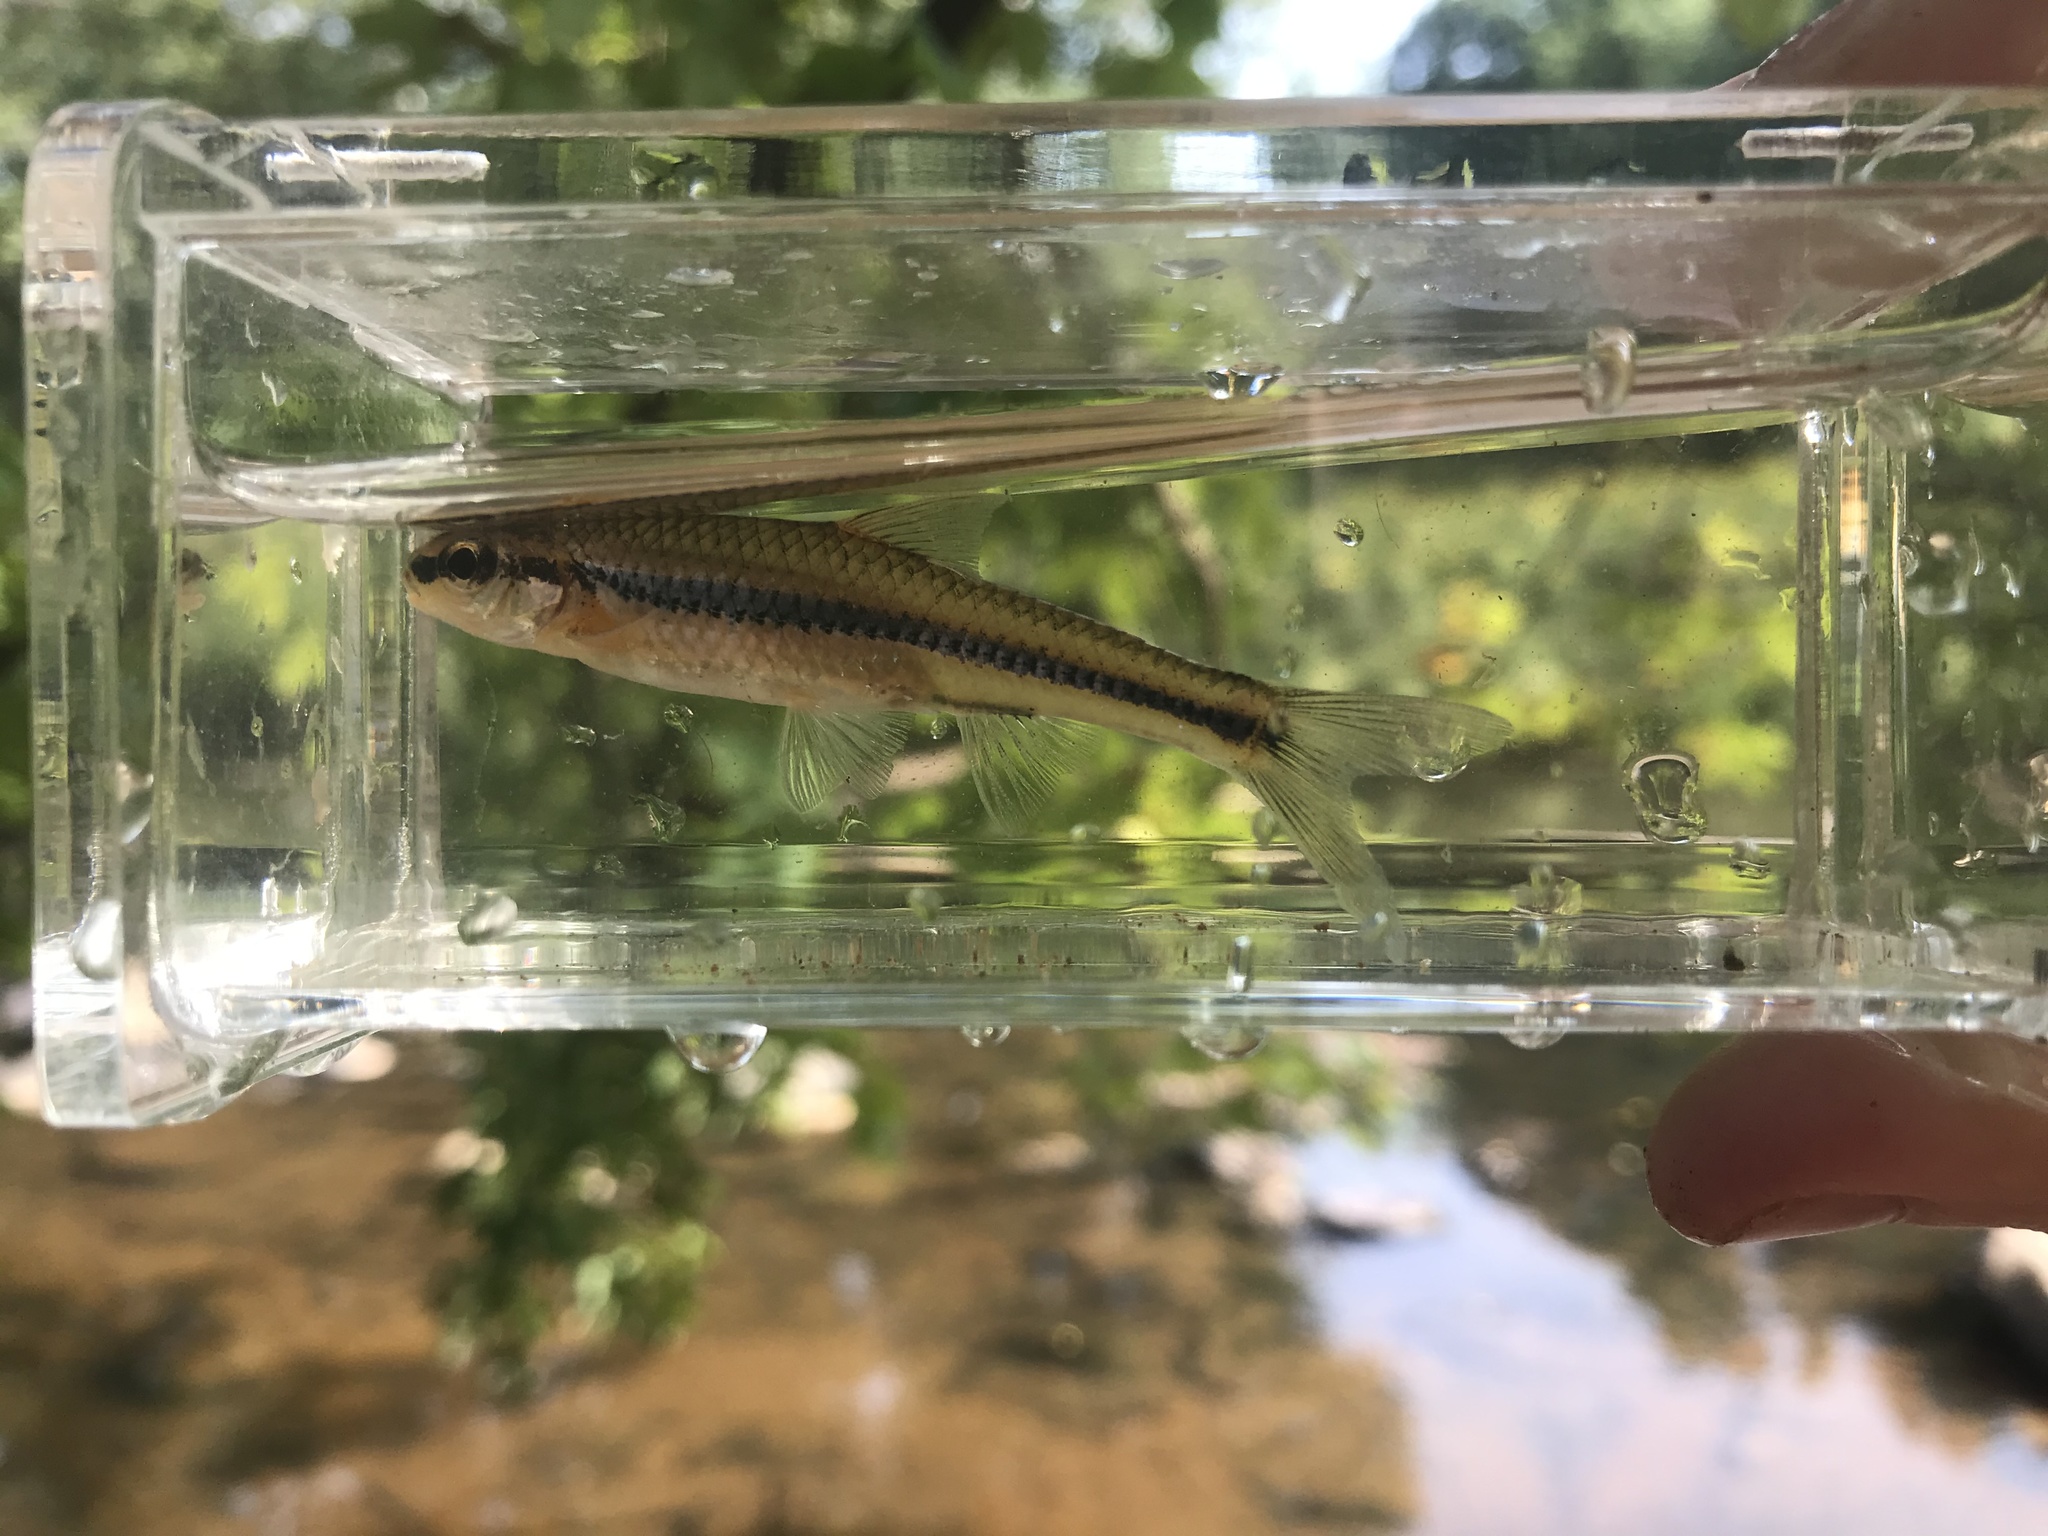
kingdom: Animalia
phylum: Chordata
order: Cypriniformes
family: Cyprinidae
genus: Notropis
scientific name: Notropis
